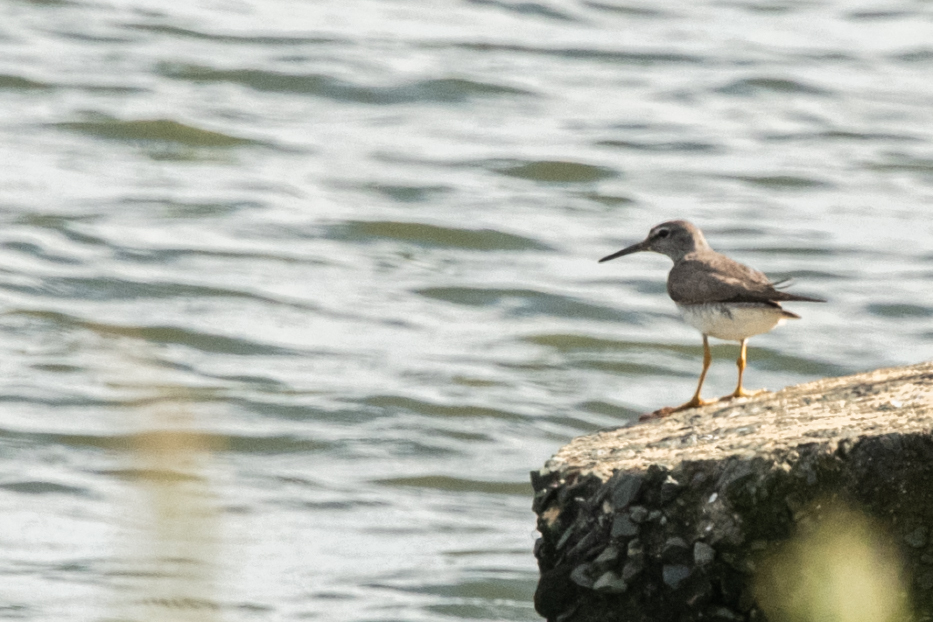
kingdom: Animalia
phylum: Chordata
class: Aves
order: Charadriiformes
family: Scolopacidae
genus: Tringa
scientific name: Tringa brevipes
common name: Grey-tailed tattler
